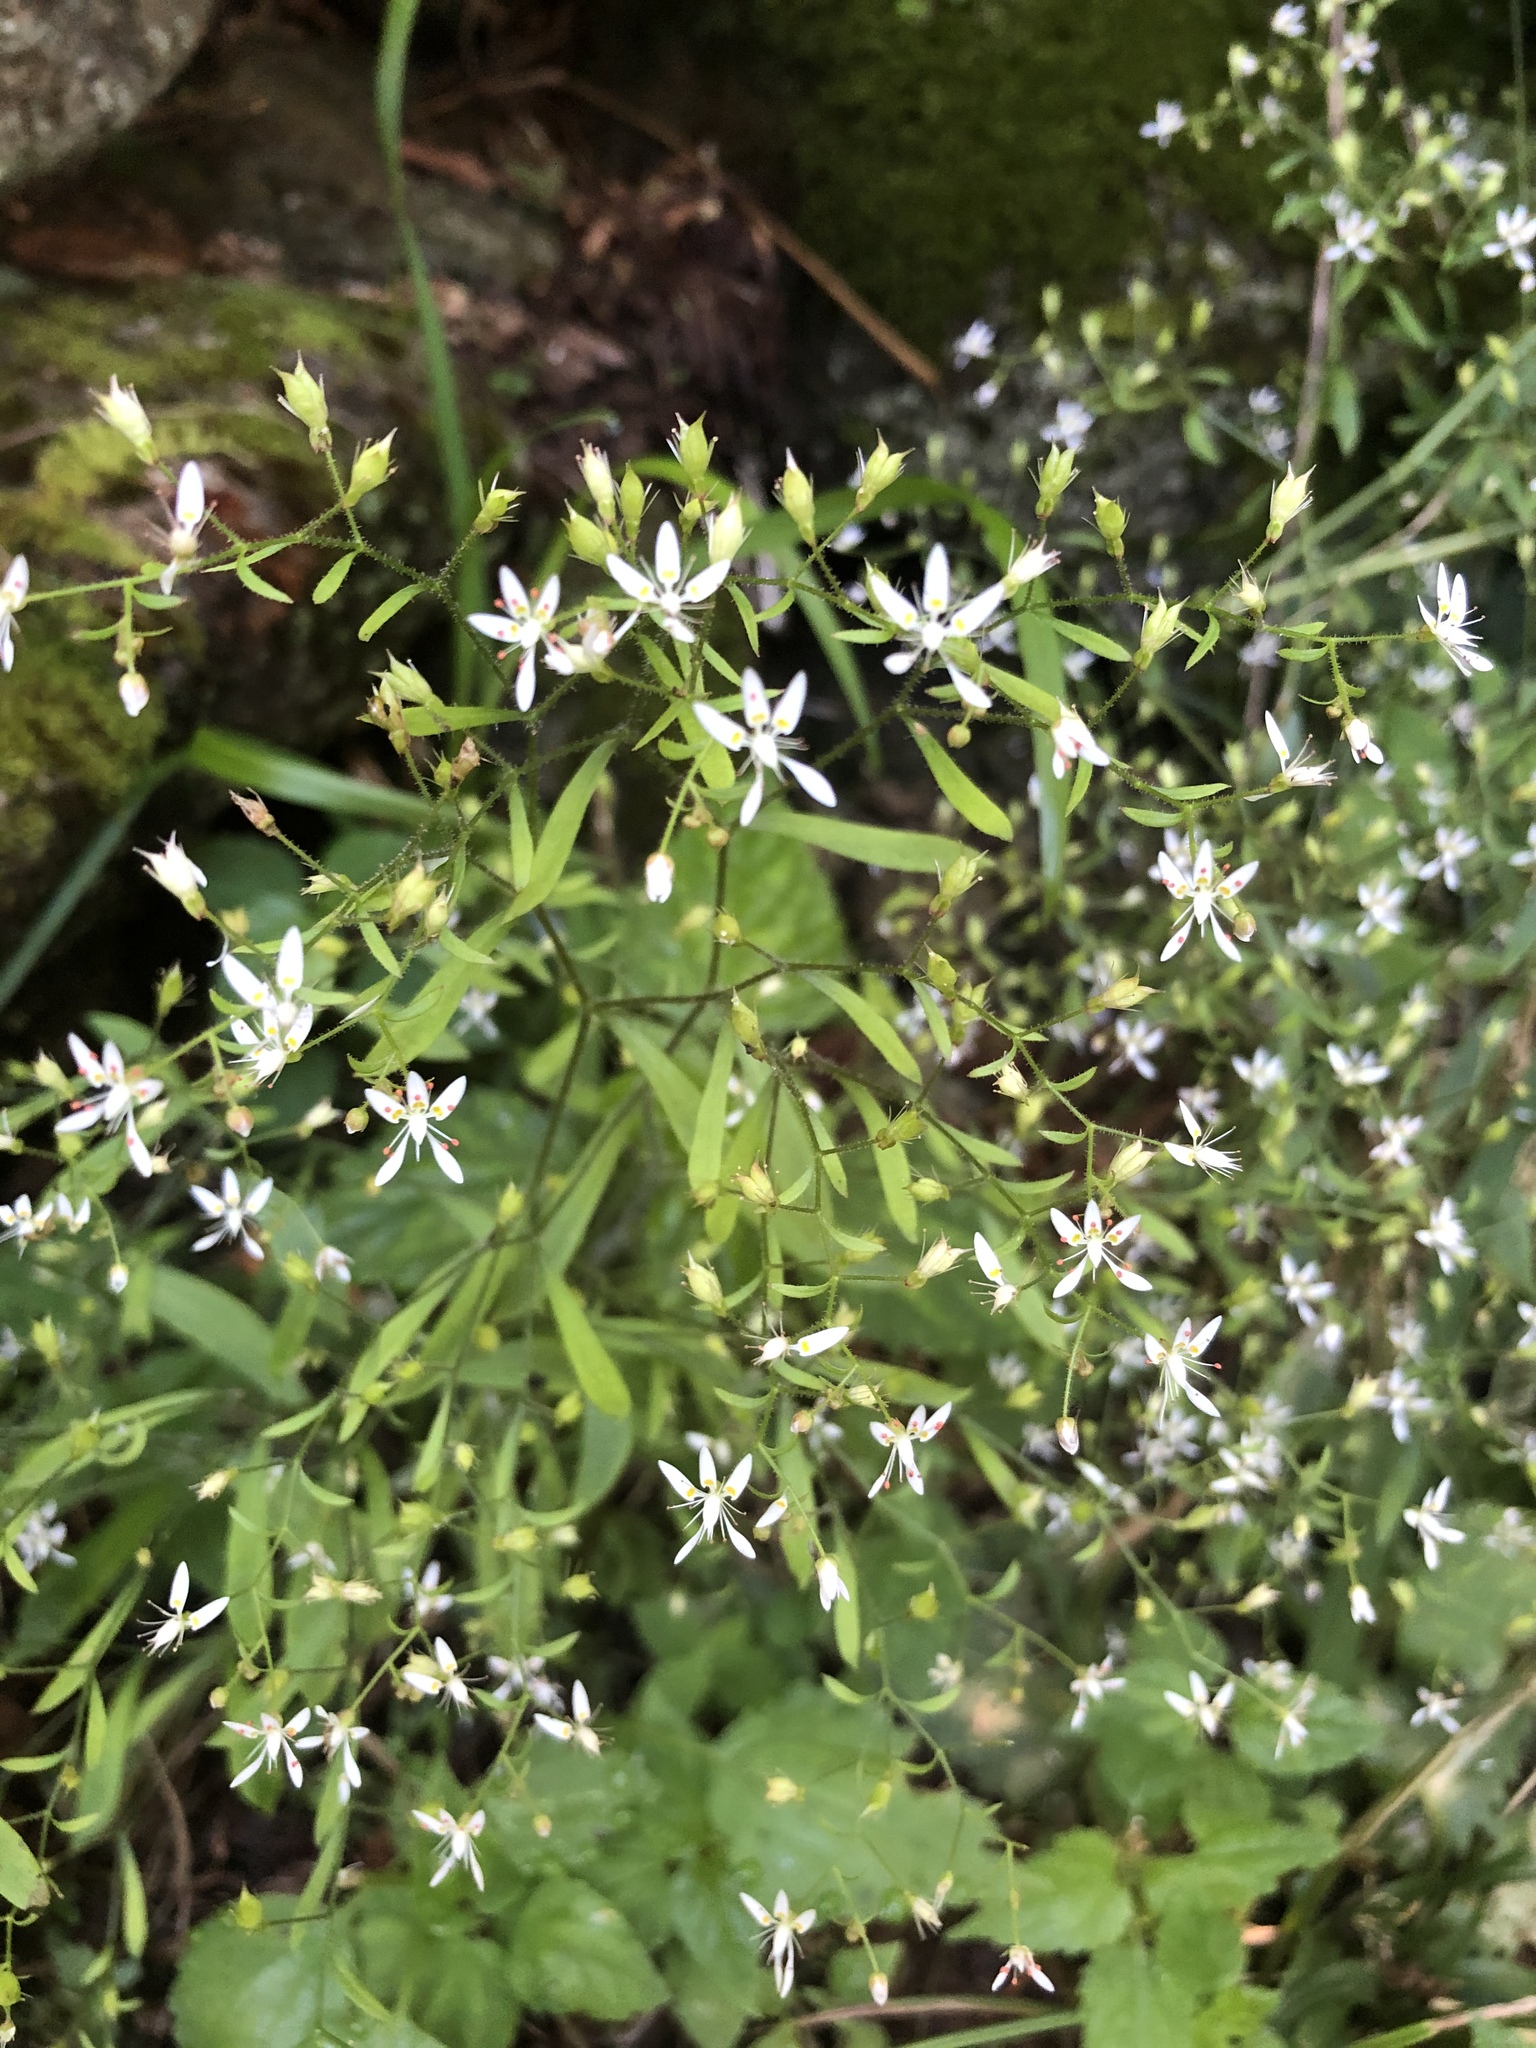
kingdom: Plantae
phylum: Tracheophyta
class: Magnoliopsida
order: Saxifragales
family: Saxifragaceae
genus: Micranthes
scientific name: Micranthes petiolaris
